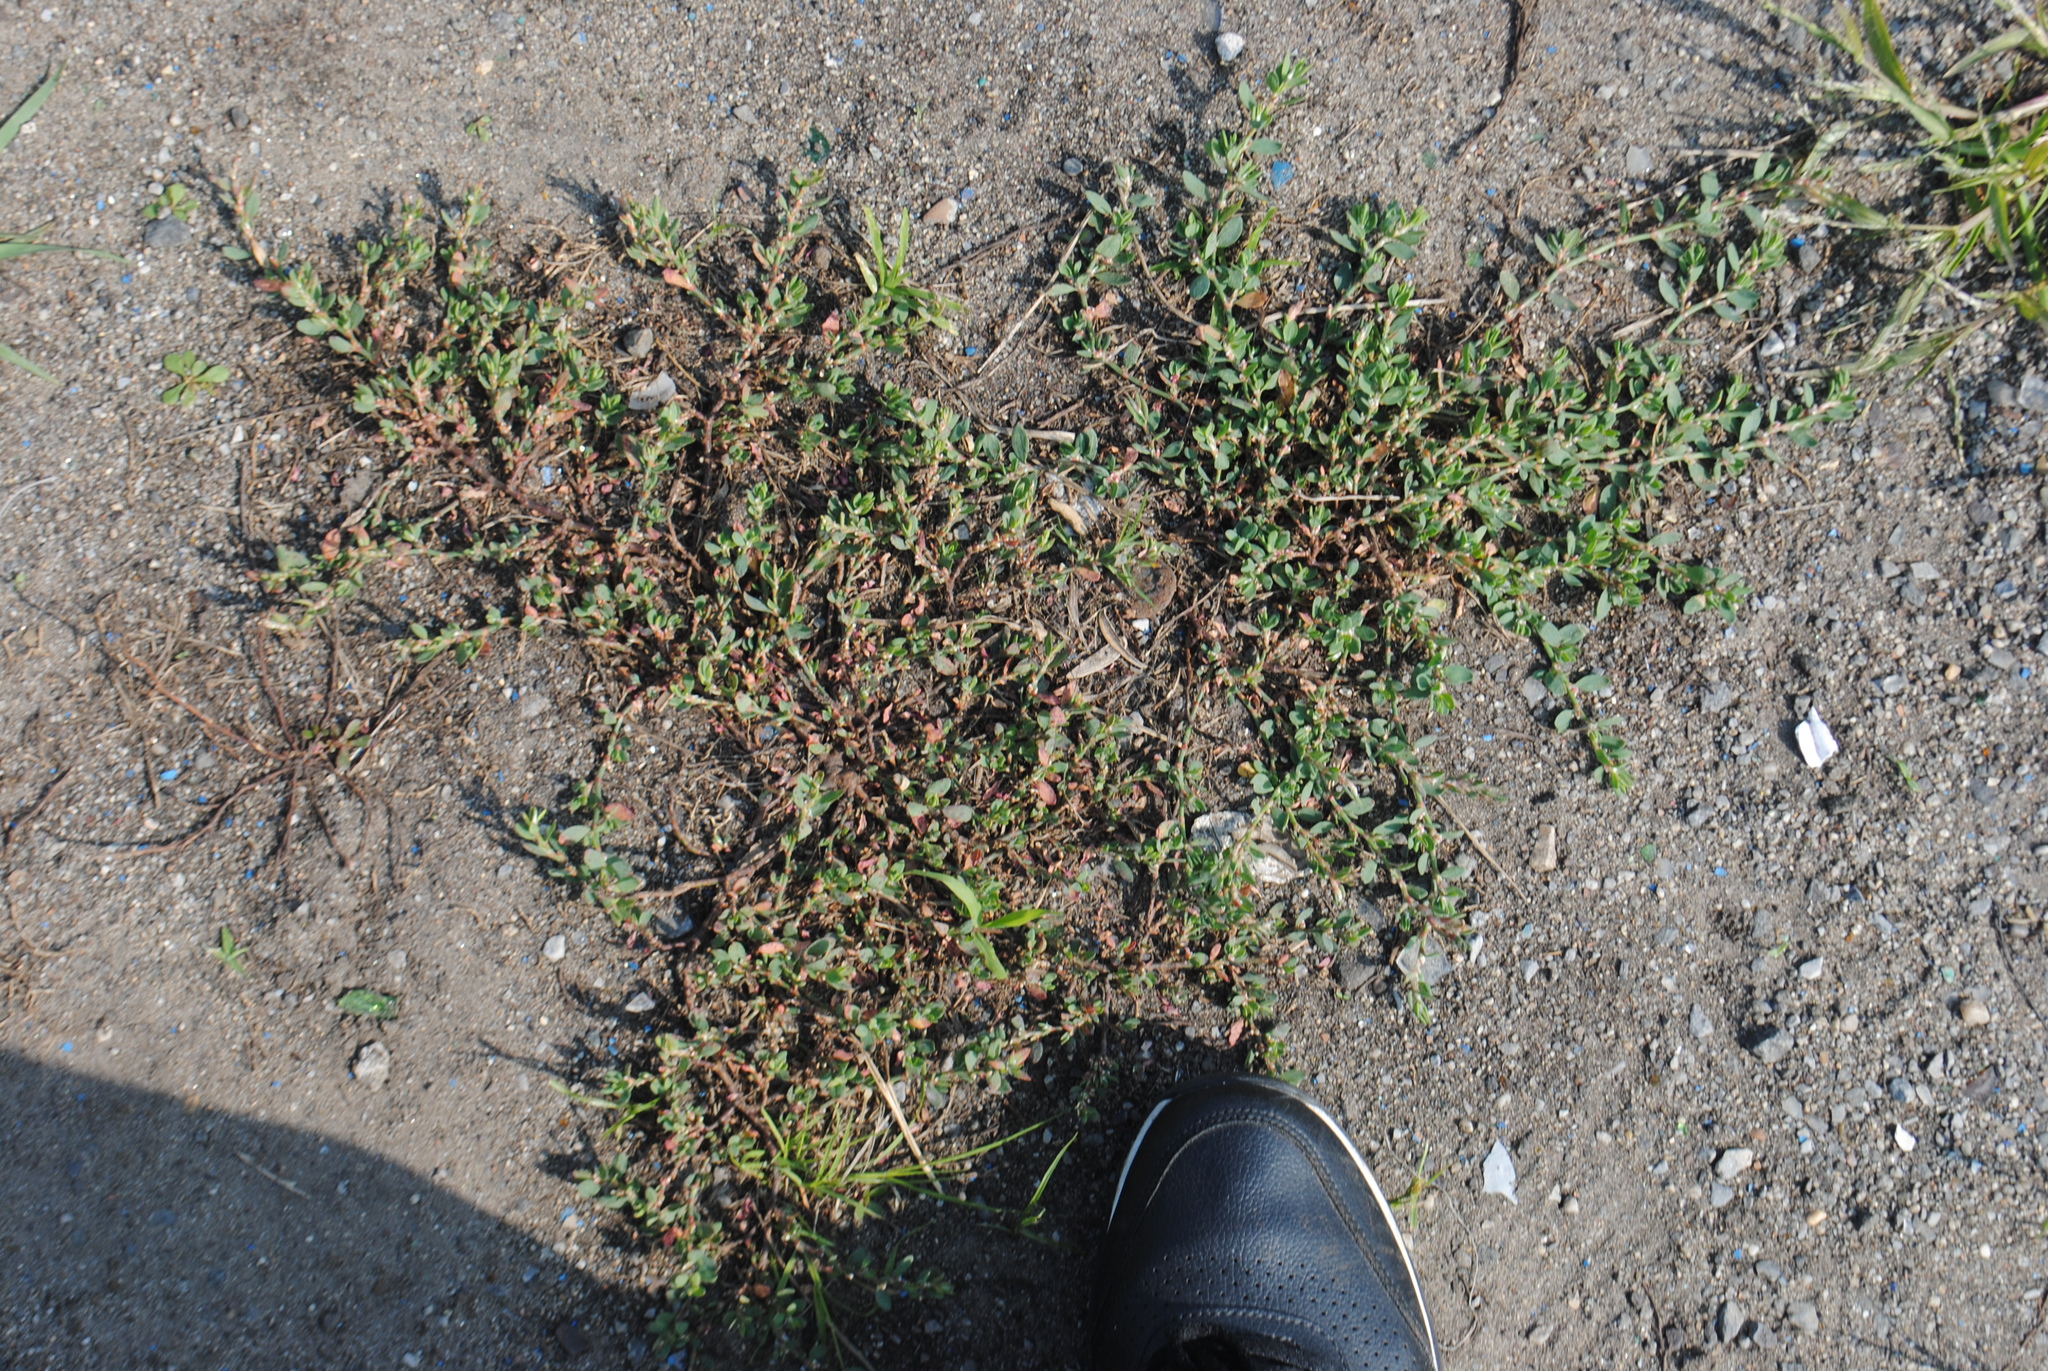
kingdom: Plantae
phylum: Tracheophyta
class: Magnoliopsida
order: Caryophyllales
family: Polygonaceae
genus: Polygonum
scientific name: Polygonum aviculare
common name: Prostrate knotweed
